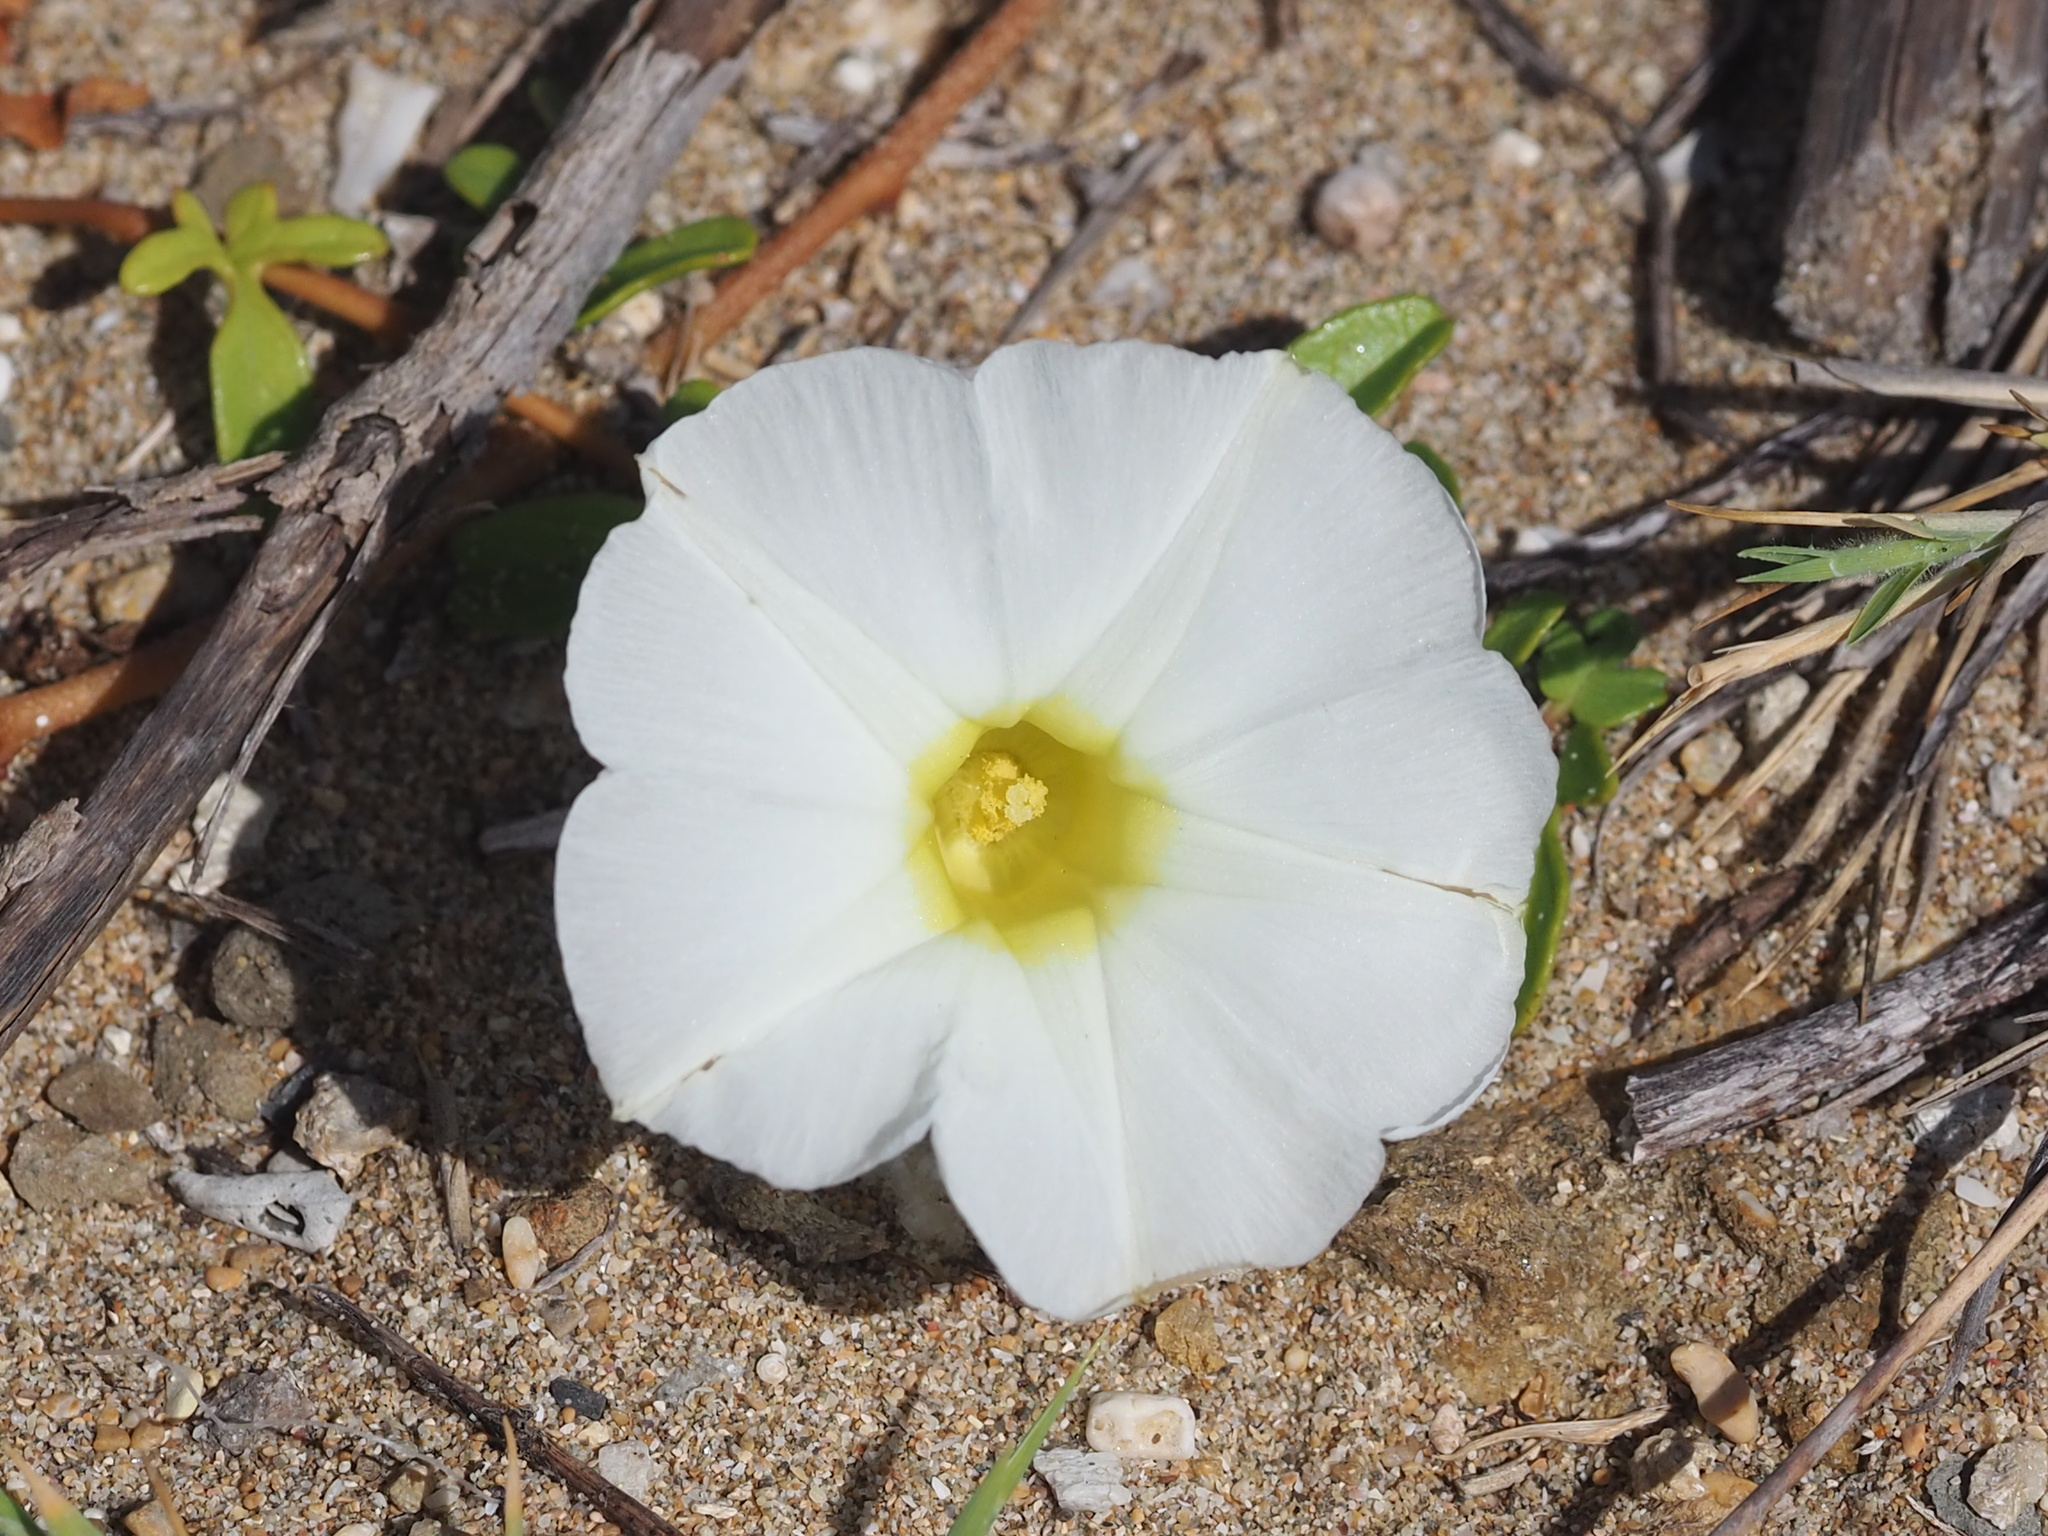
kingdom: Plantae
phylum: Tracheophyta
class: Magnoliopsida
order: Solanales
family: Convolvulaceae
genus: Ipomoea
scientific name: Ipomoea imperati
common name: Fiddle-leaf morning-glory
